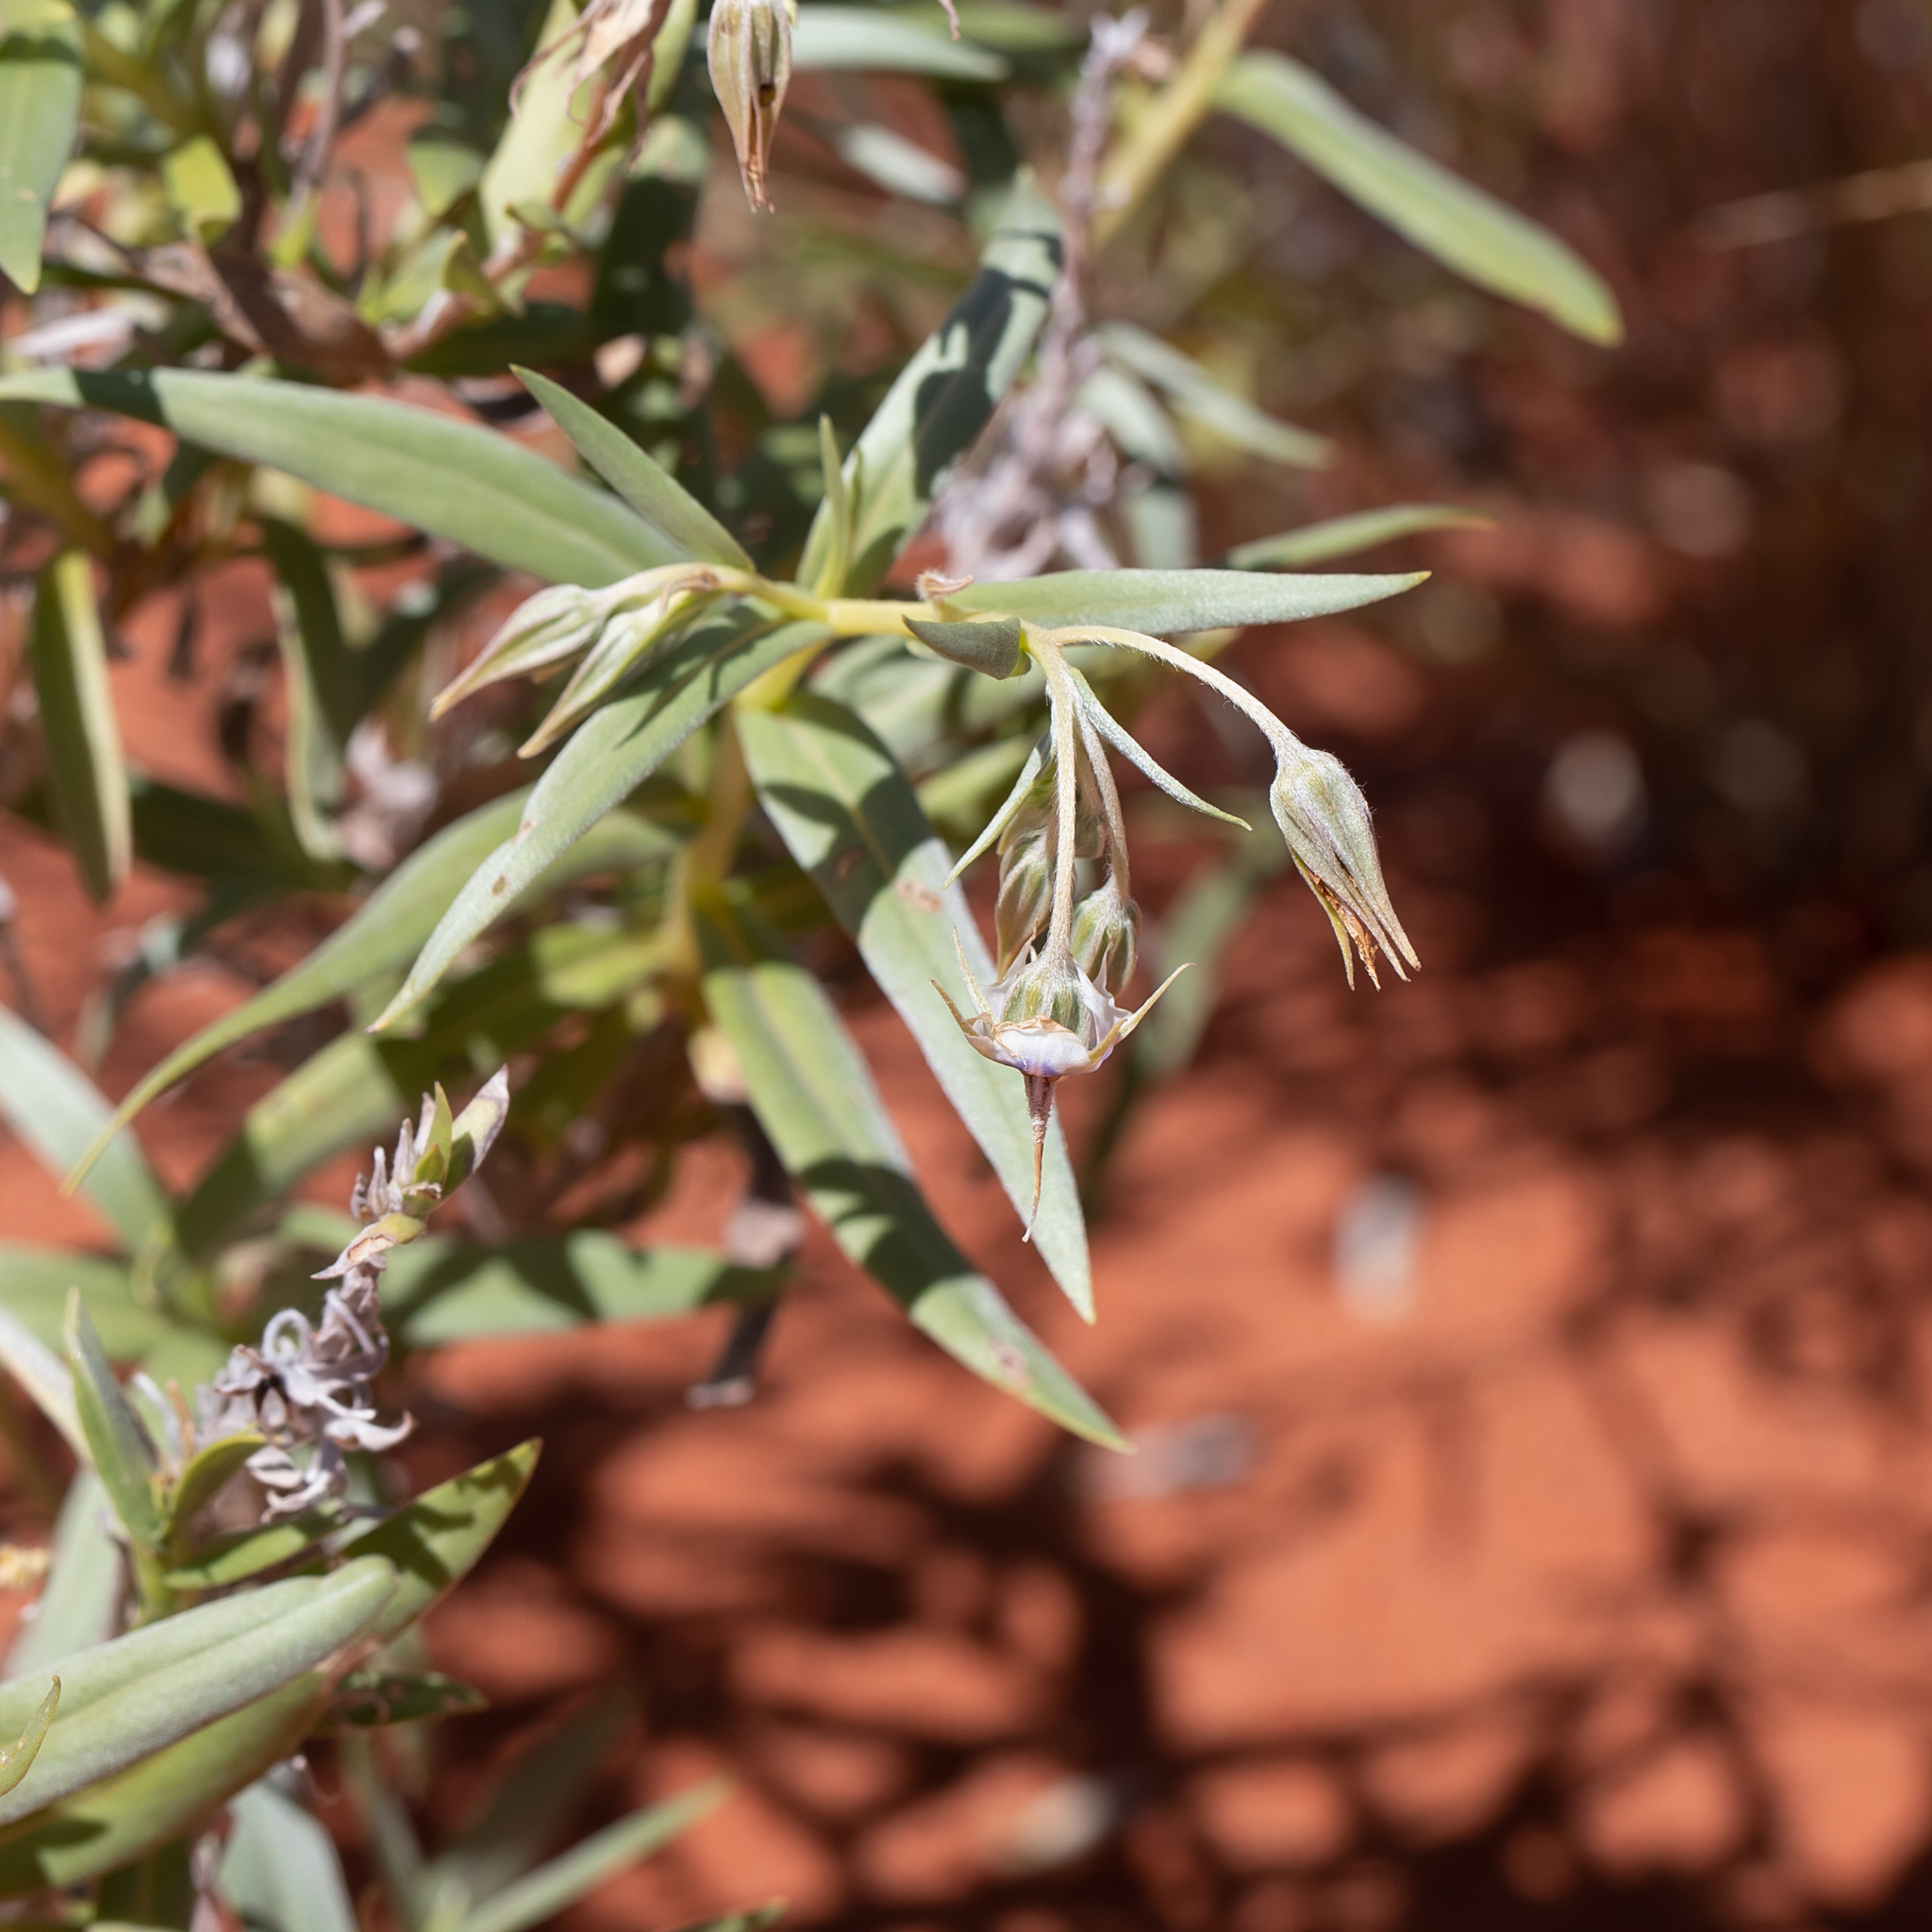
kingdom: Plantae
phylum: Tracheophyta
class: Magnoliopsida
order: Boraginales
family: Boraginaceae
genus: Trichodesma
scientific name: Trichodesma zeylanicum
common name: Camelbush
